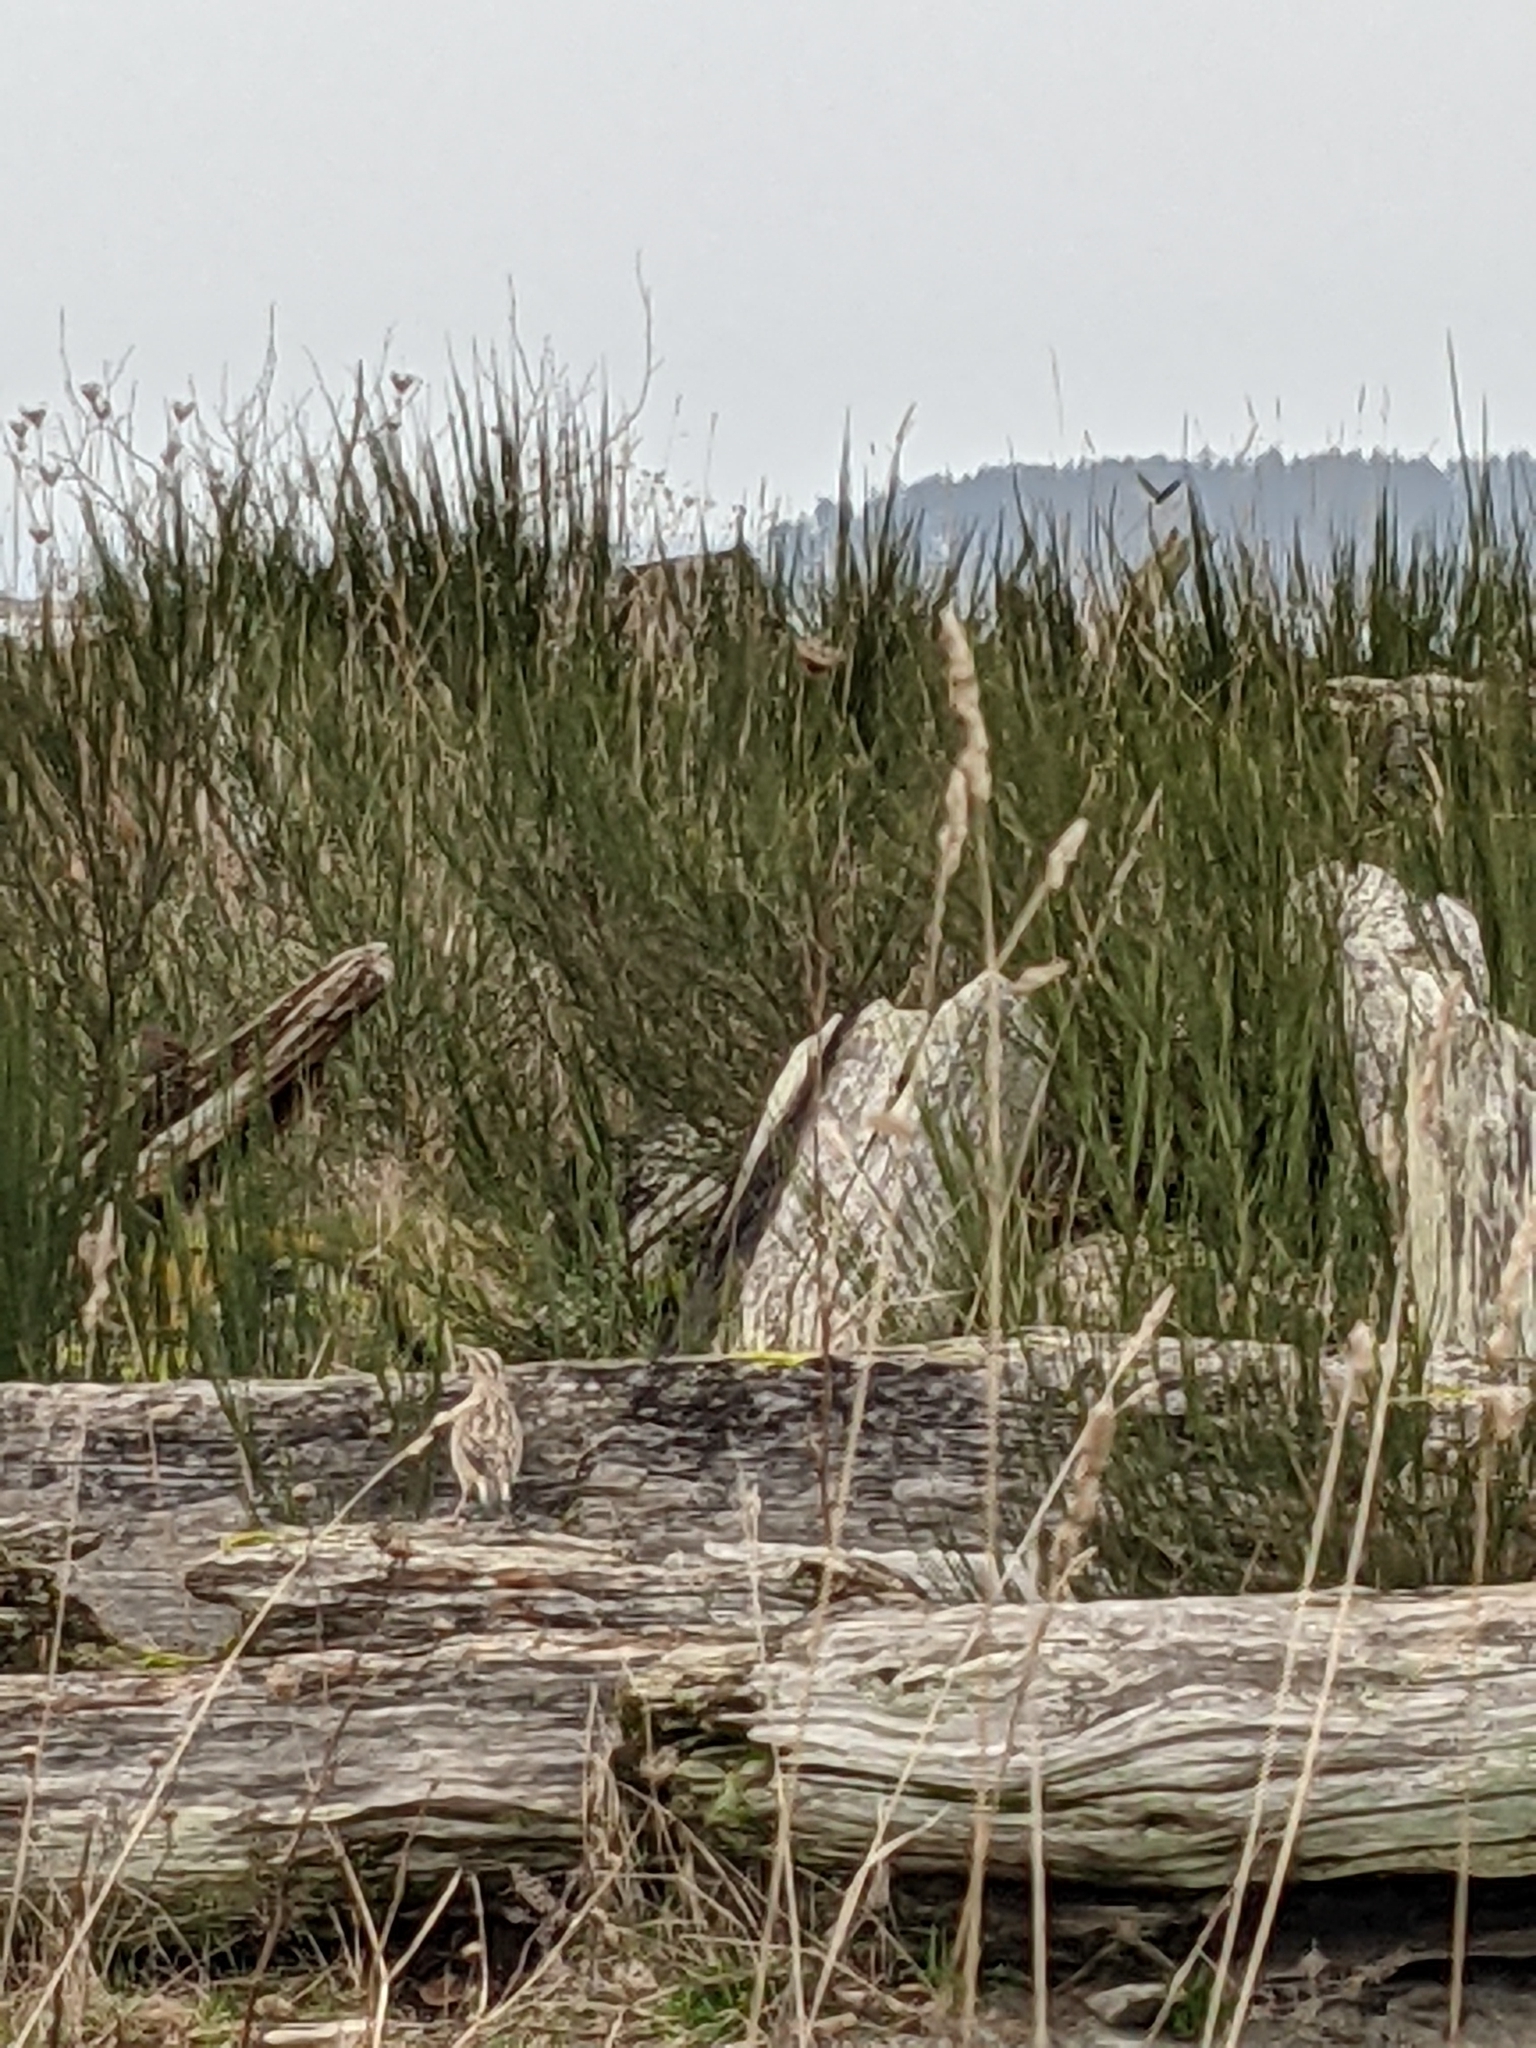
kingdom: Animalia
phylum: Chordata
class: Aves
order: Passeriformes
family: Icteridae
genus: Sturnella
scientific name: Sturnella neglecta
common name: Western meadowlark
